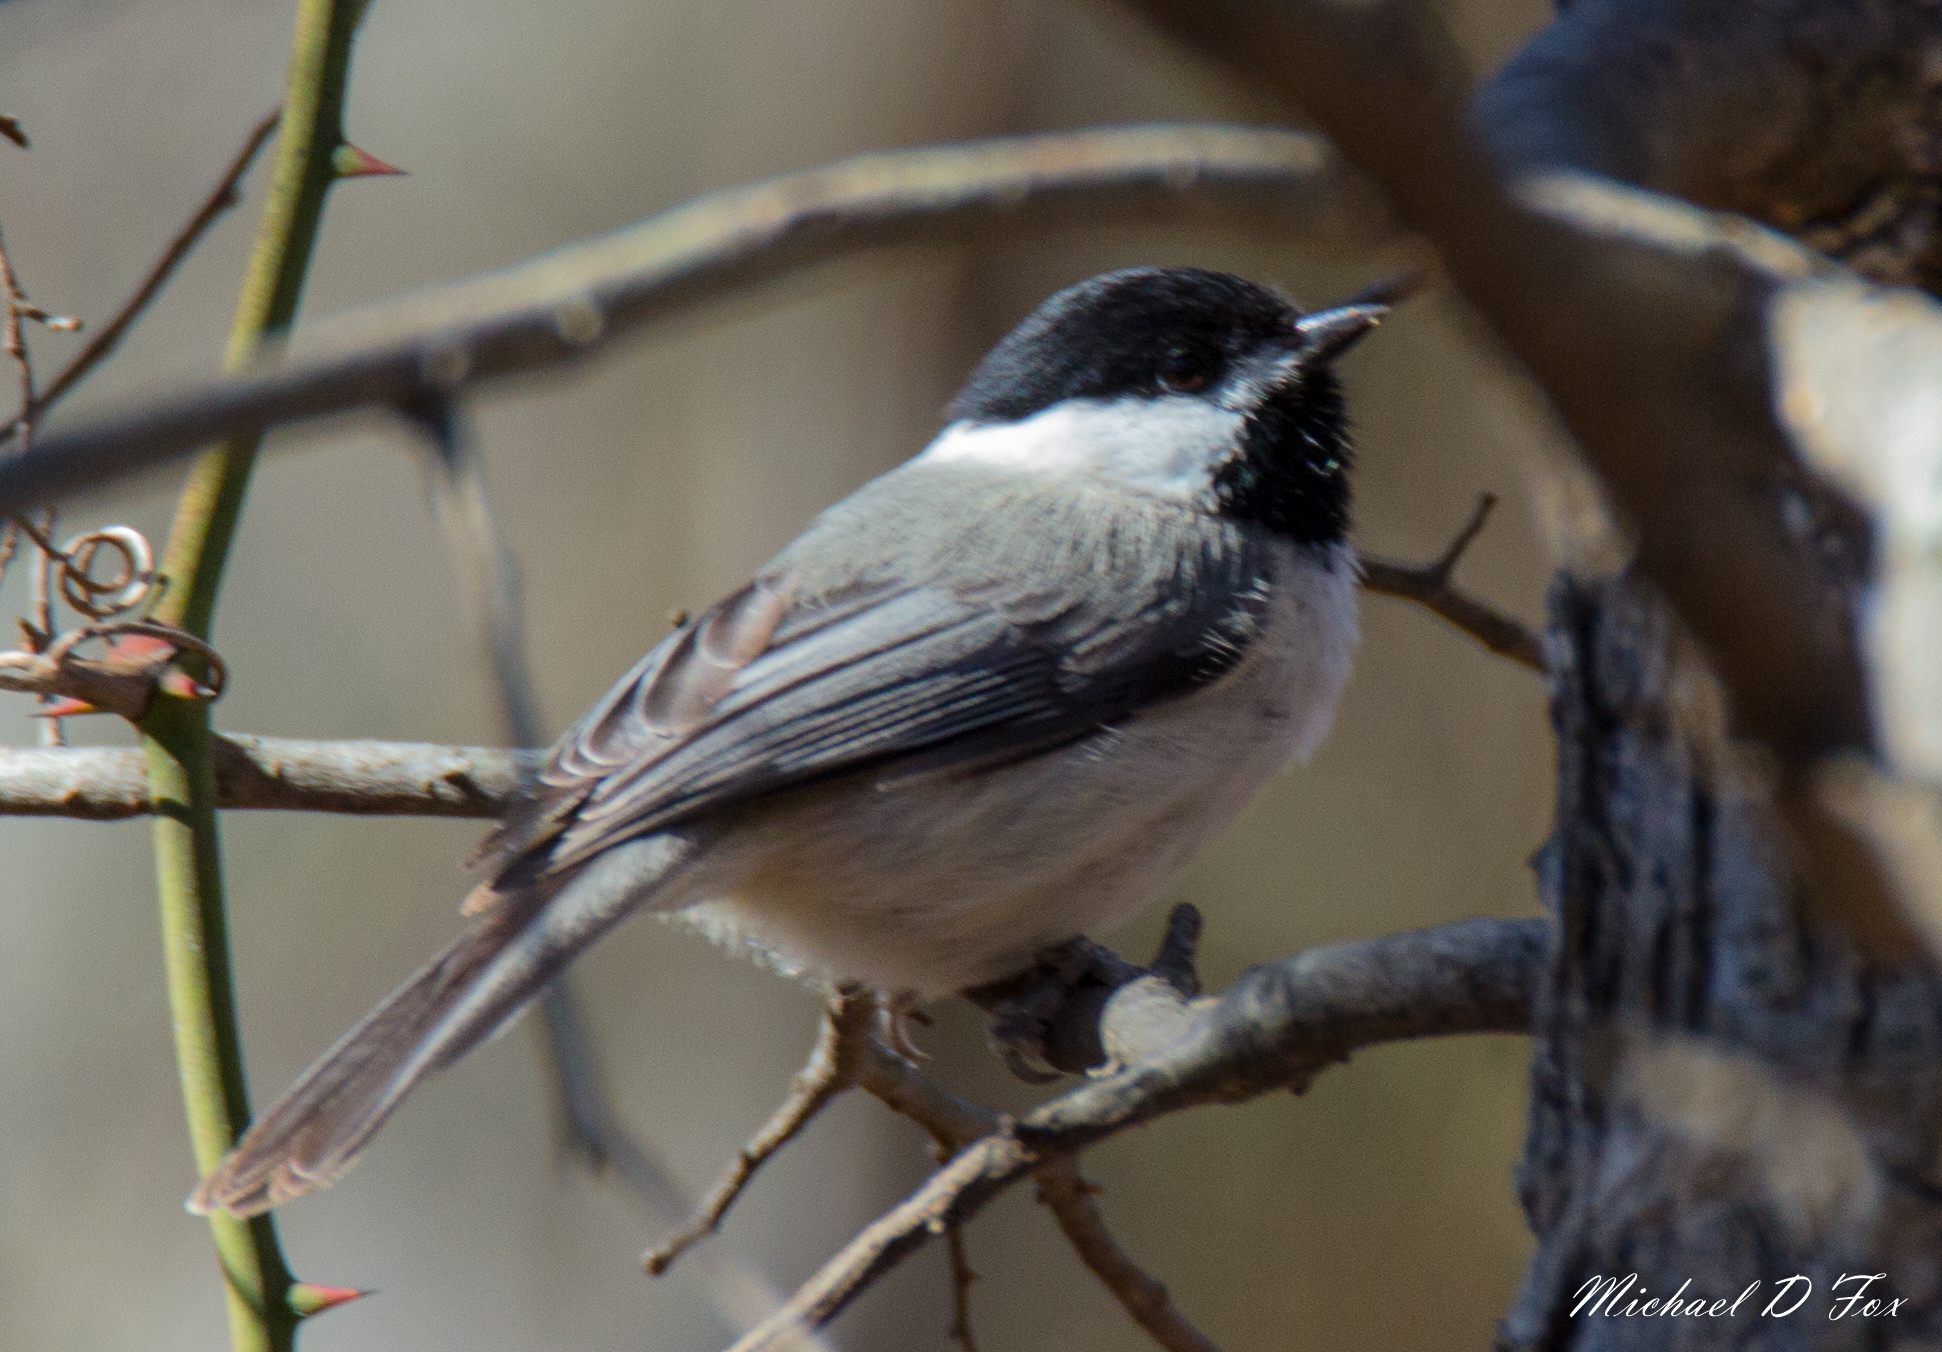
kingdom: Animalia
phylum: Chordata
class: Aves
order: Passeriformes
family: Paridae
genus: Poecile
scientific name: Poecile carolinensis
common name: Carolina chickadee
